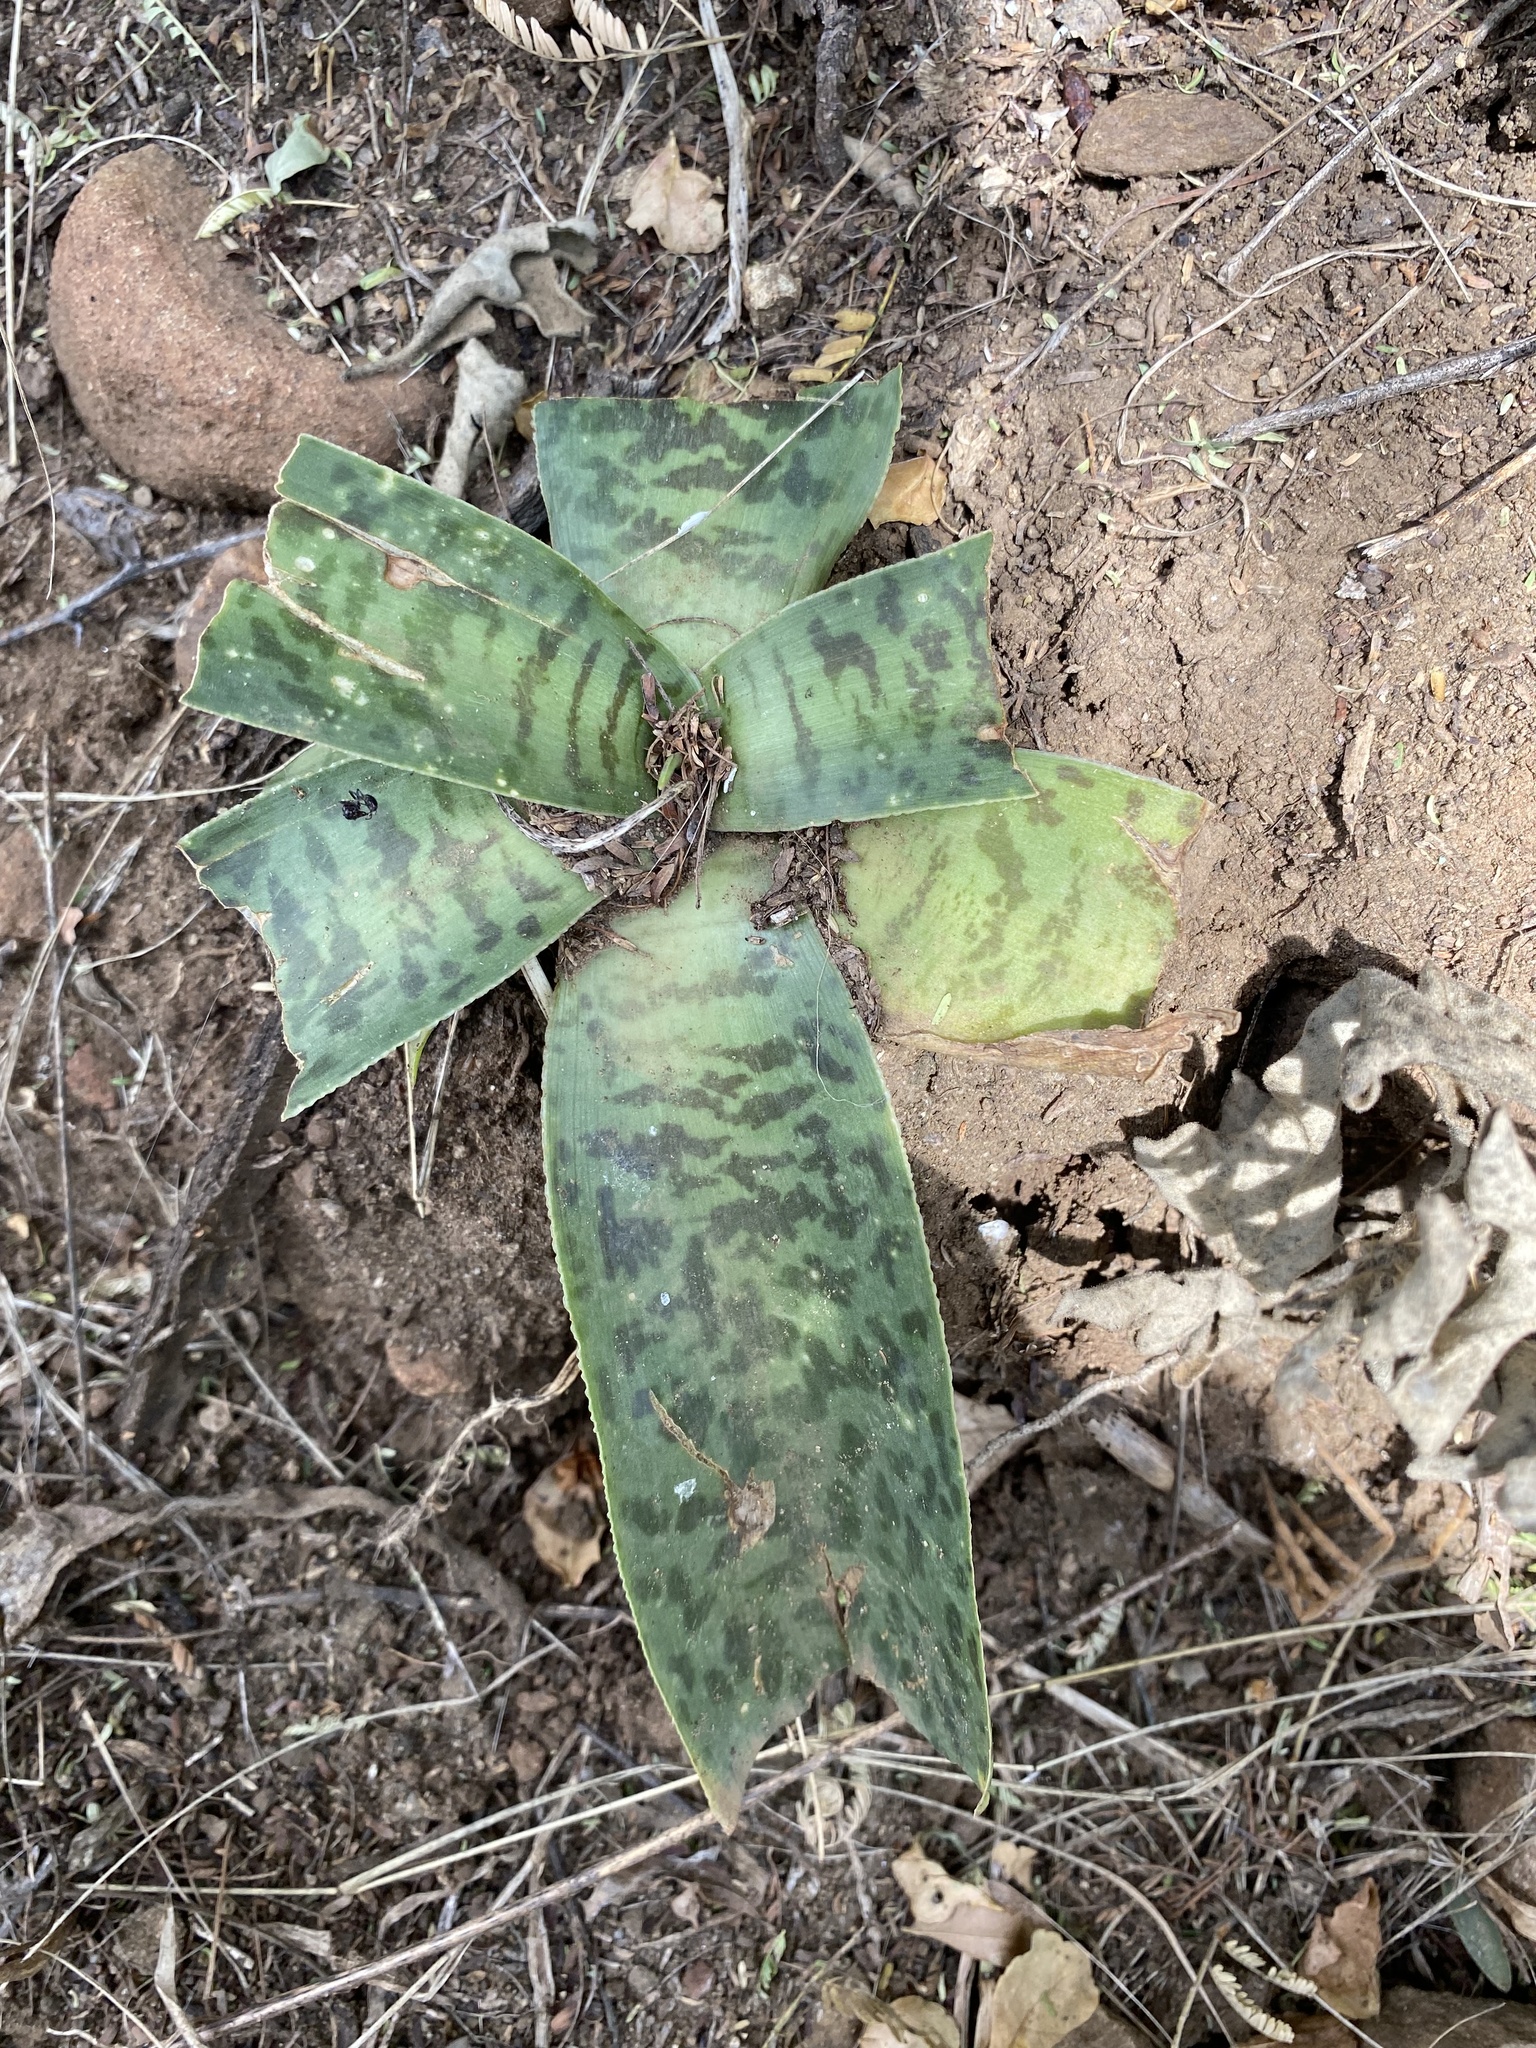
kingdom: Plantae
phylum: Tracheophyta
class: Liliopsida
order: Asparagales
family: Asparagaceae
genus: Ledebouria
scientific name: Ledebouria luteola
